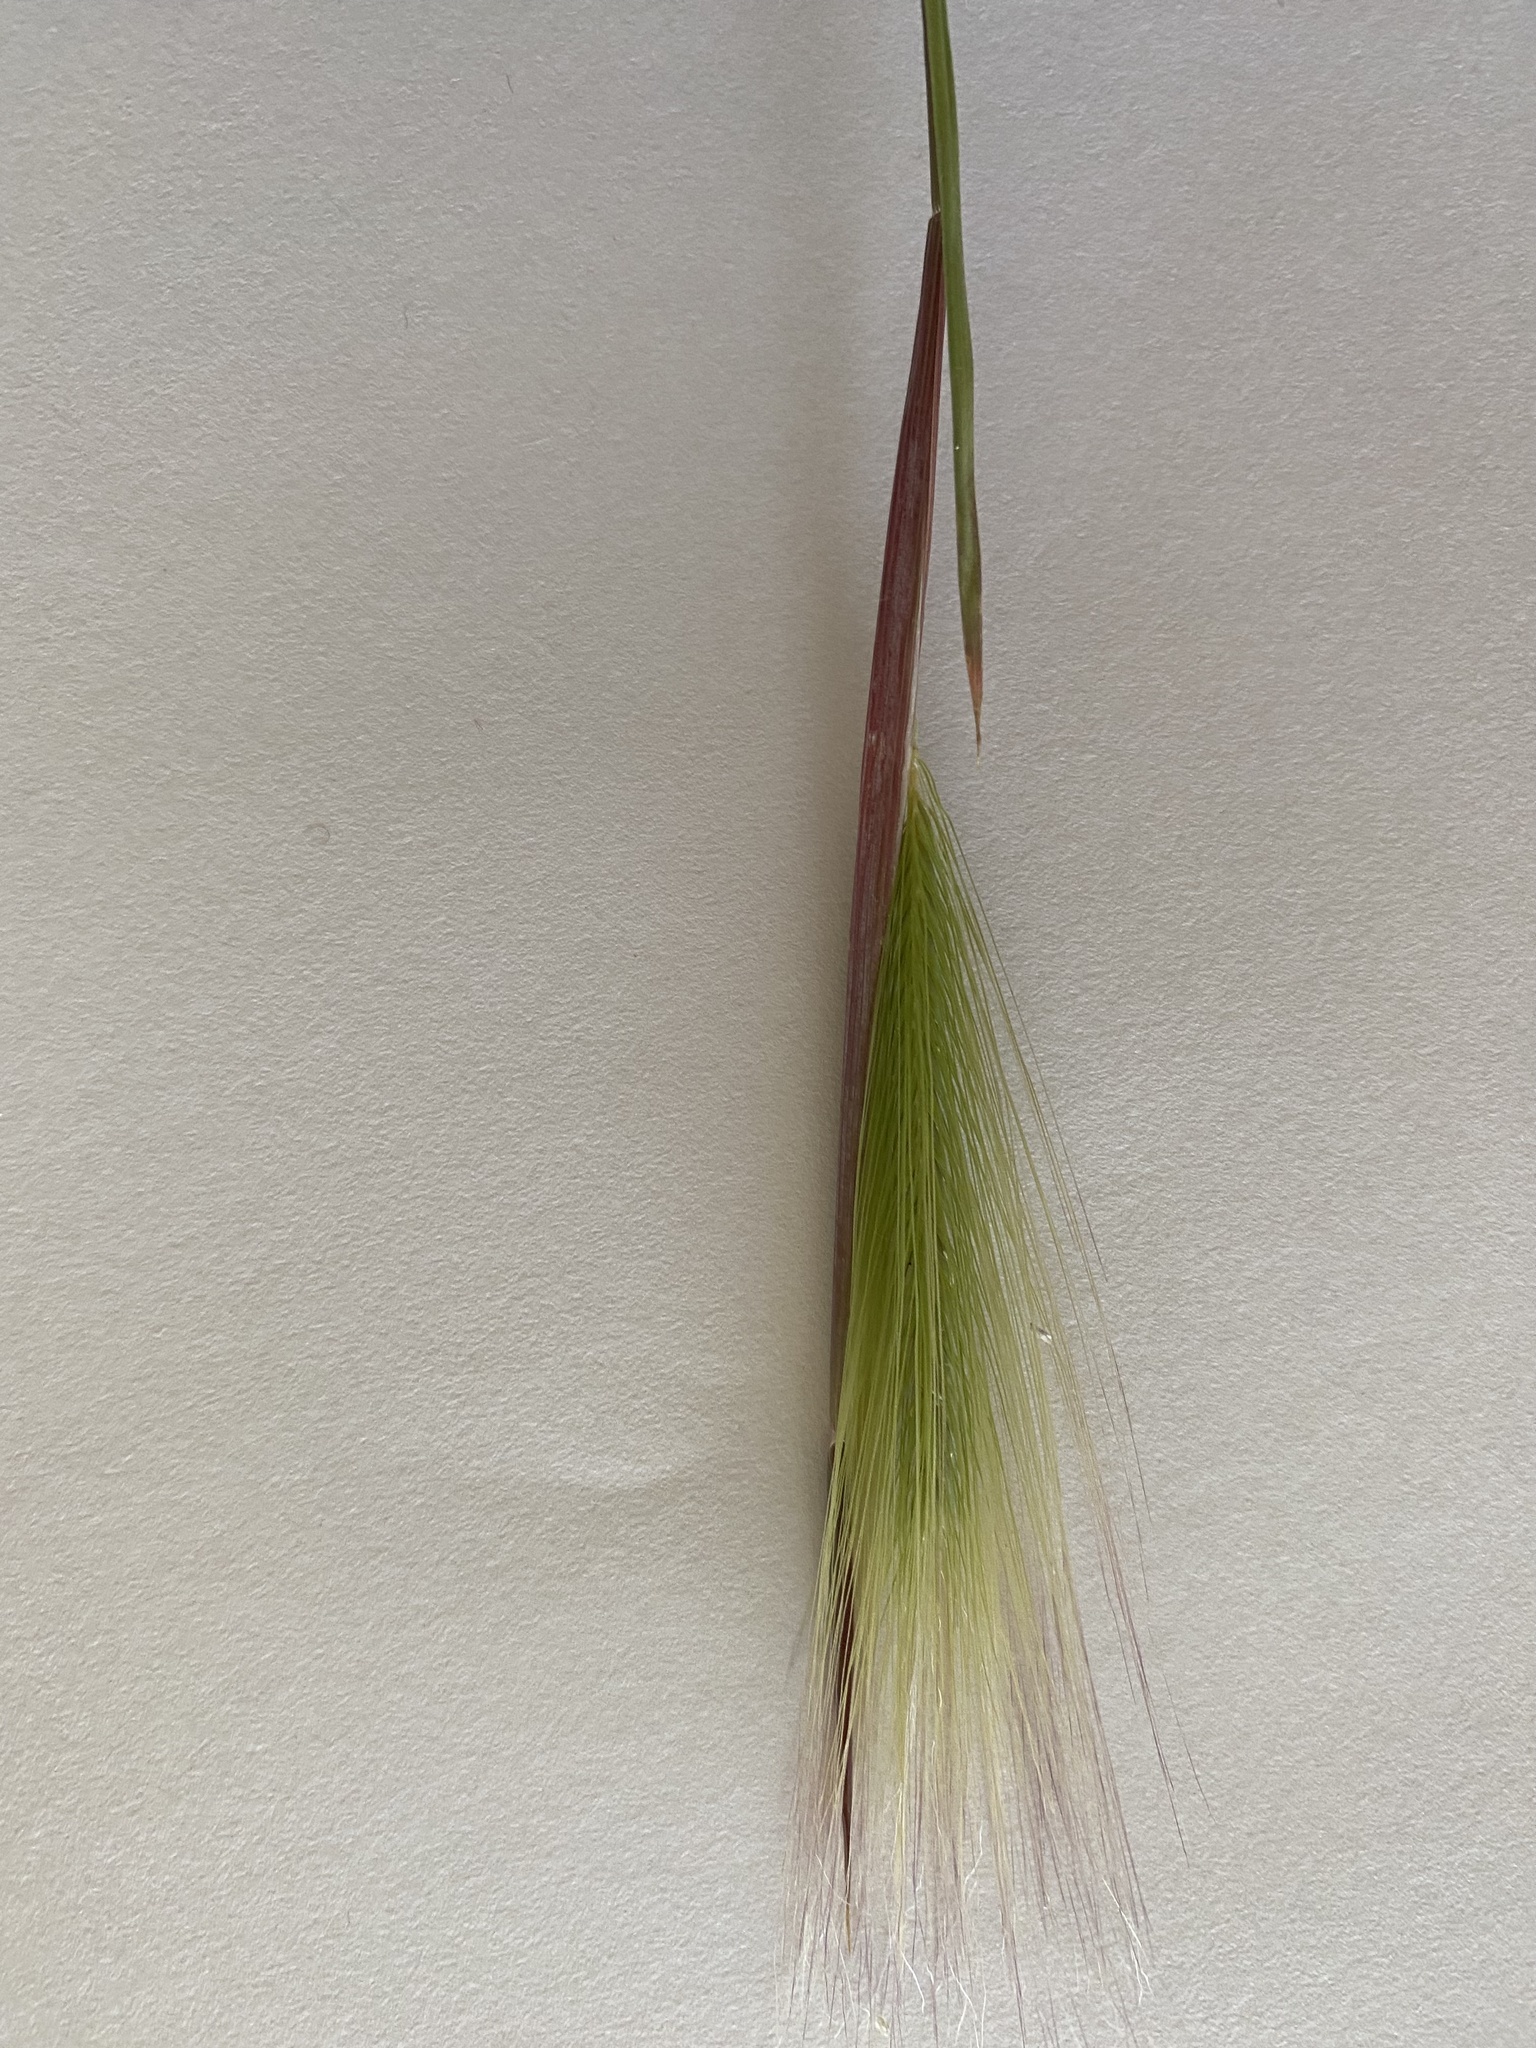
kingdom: Plantae
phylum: Tracheophyta
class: Liliopsida
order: Poales
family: Poaceae
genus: Hordeum
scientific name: Hordeum jubatum
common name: Foxtail barley
